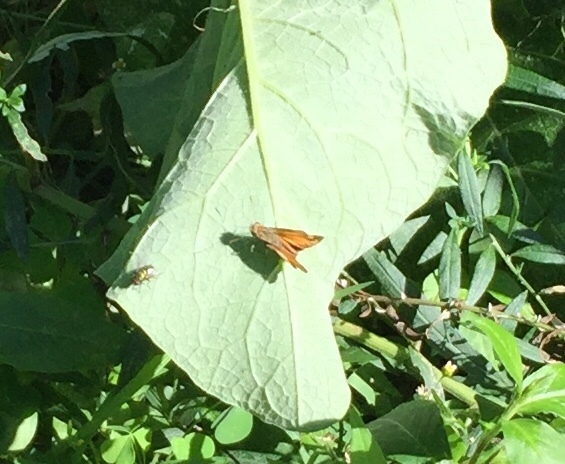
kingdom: Animalia
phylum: Arthropoda
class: Insecta
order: Lepidoptera
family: Hesperiidae
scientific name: Hesperiidae
